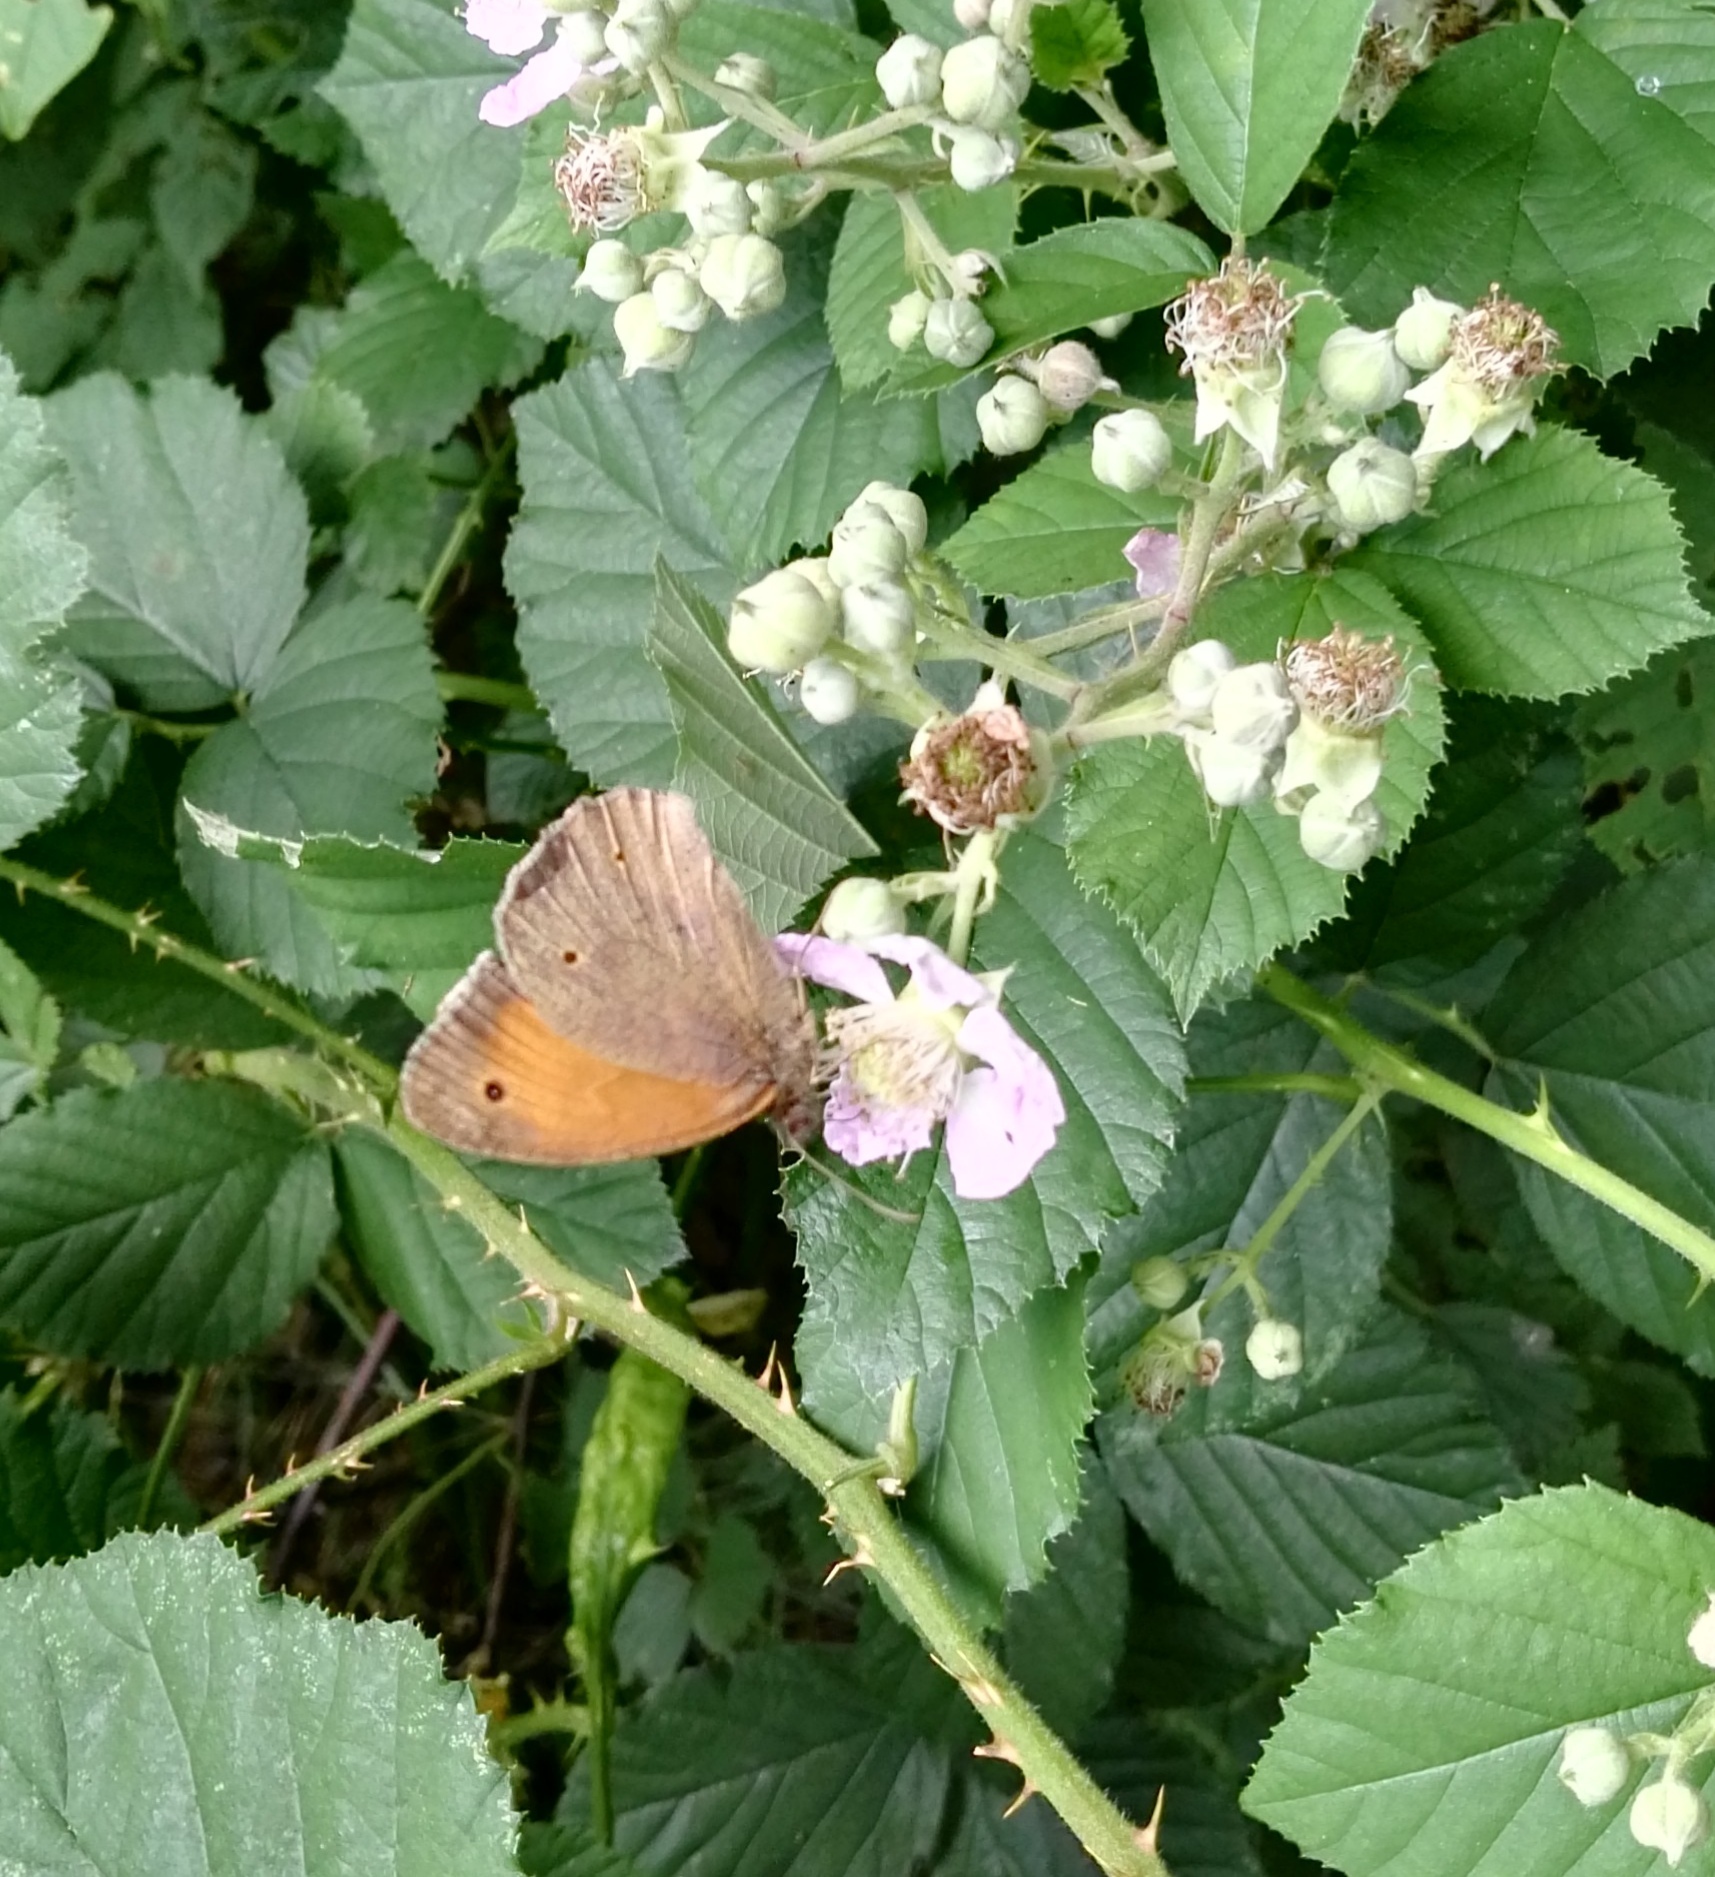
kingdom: Animalia
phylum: Arthropoda
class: Insecta
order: Lepidoptera
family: Nymphalidae
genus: Maniola
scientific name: Maniola jurtina
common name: Meadow brown
